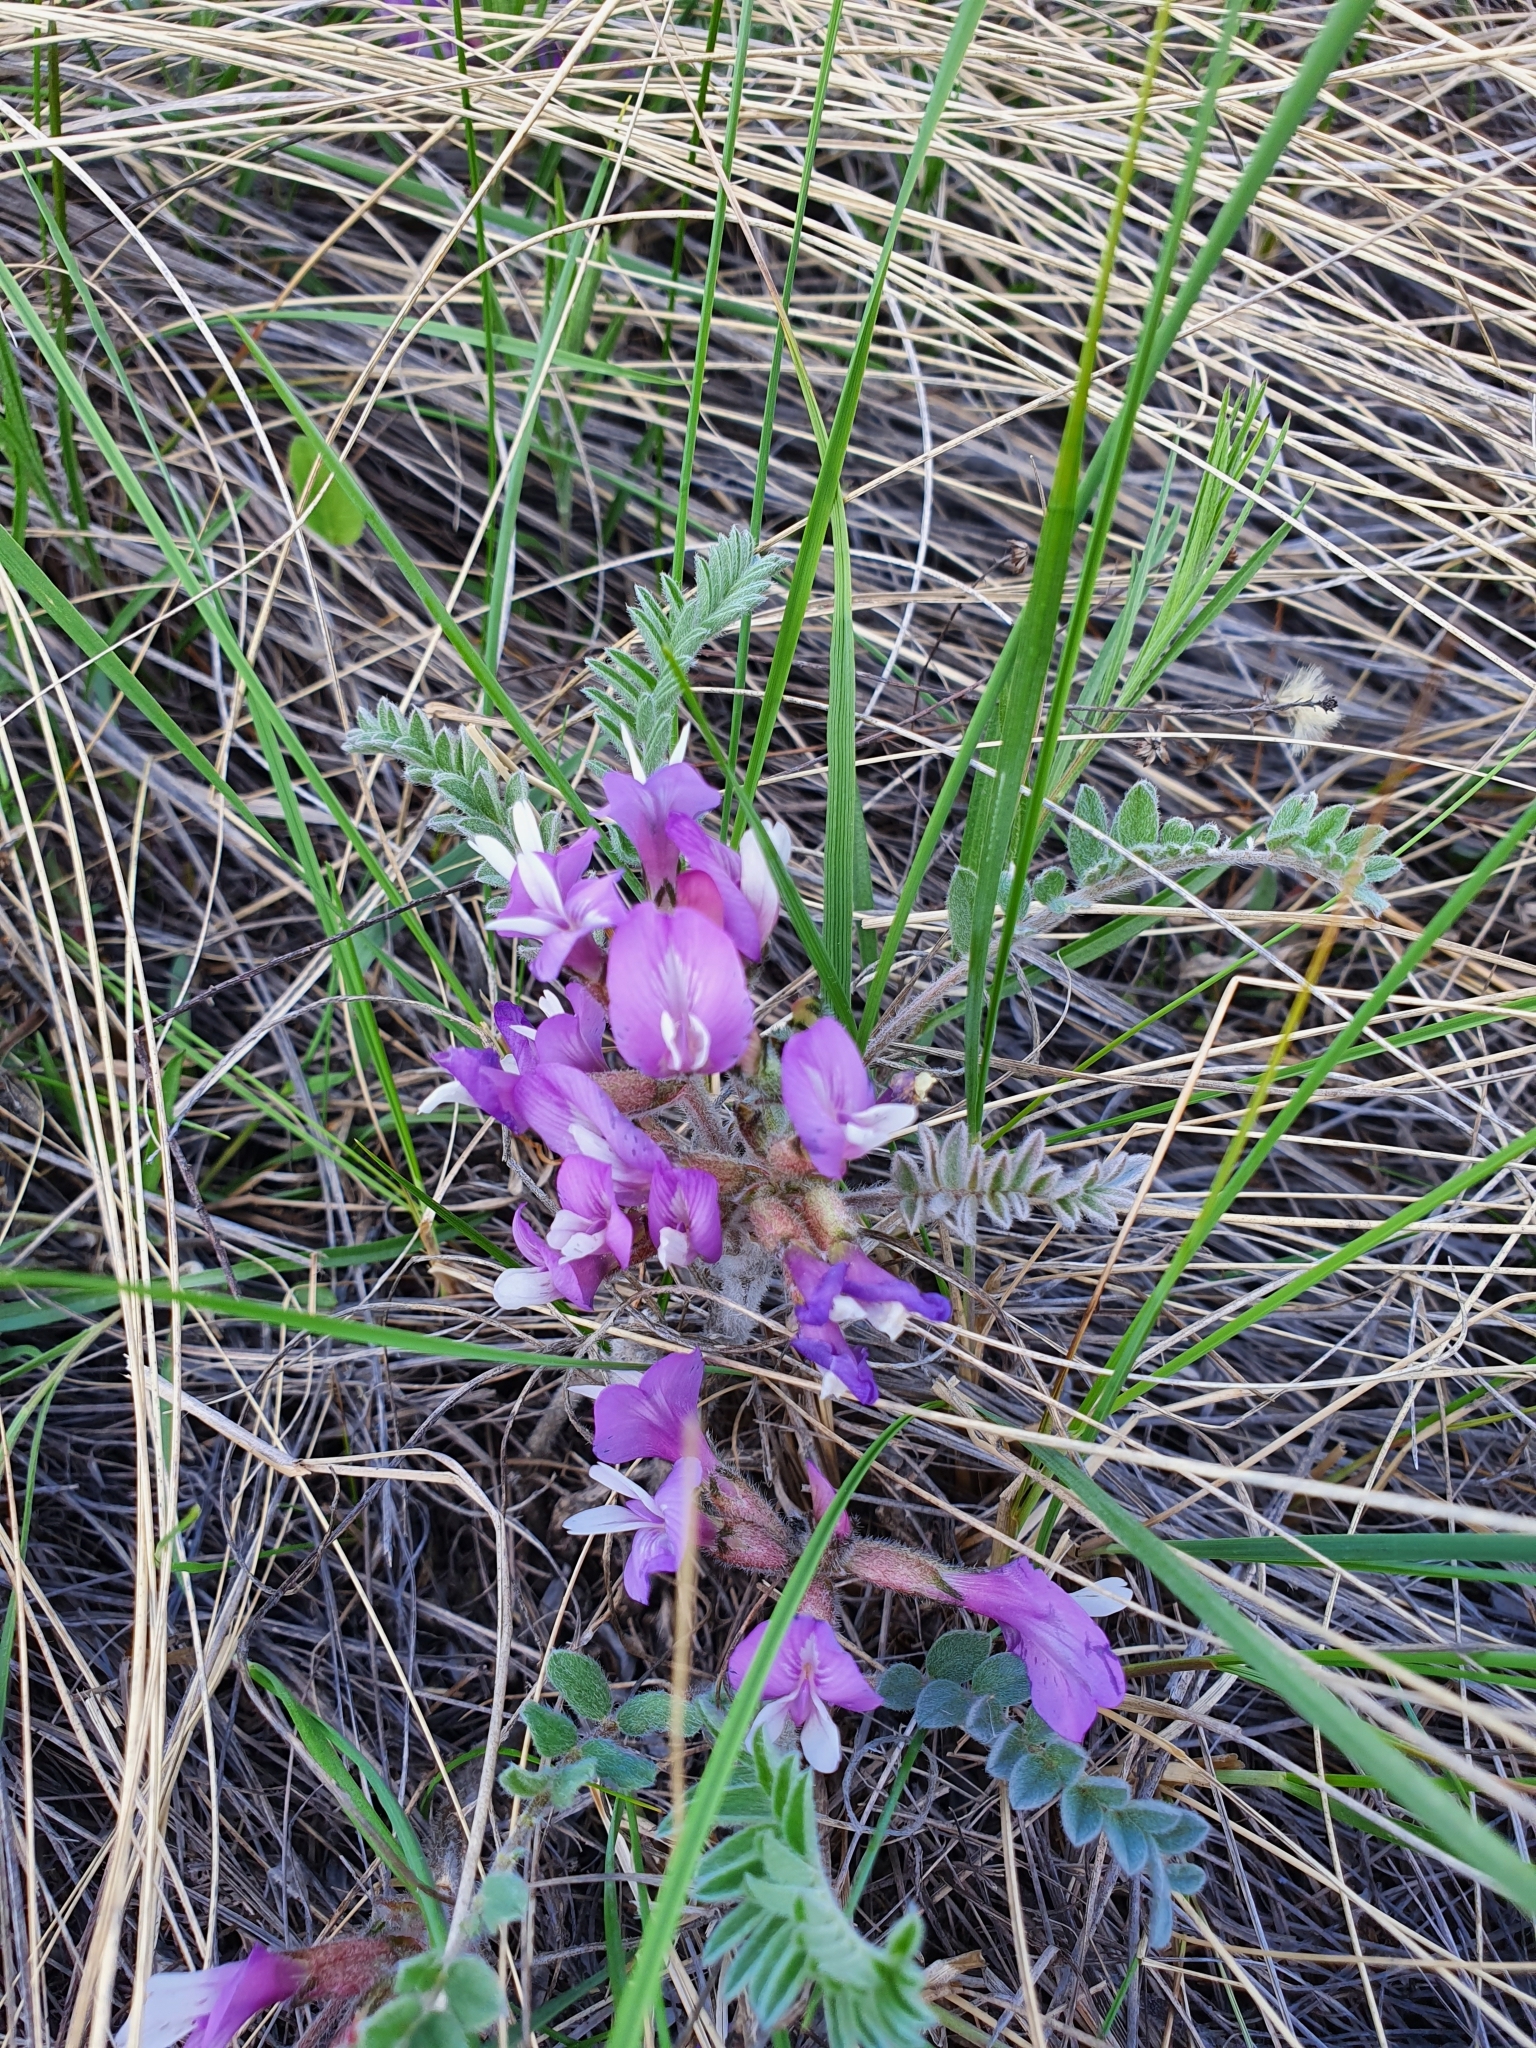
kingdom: Plantae
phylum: Tracheophyta
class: Magnoliopsida
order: Fabales
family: Fabaceae
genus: Astragalus
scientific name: Astragalus testiculatus
